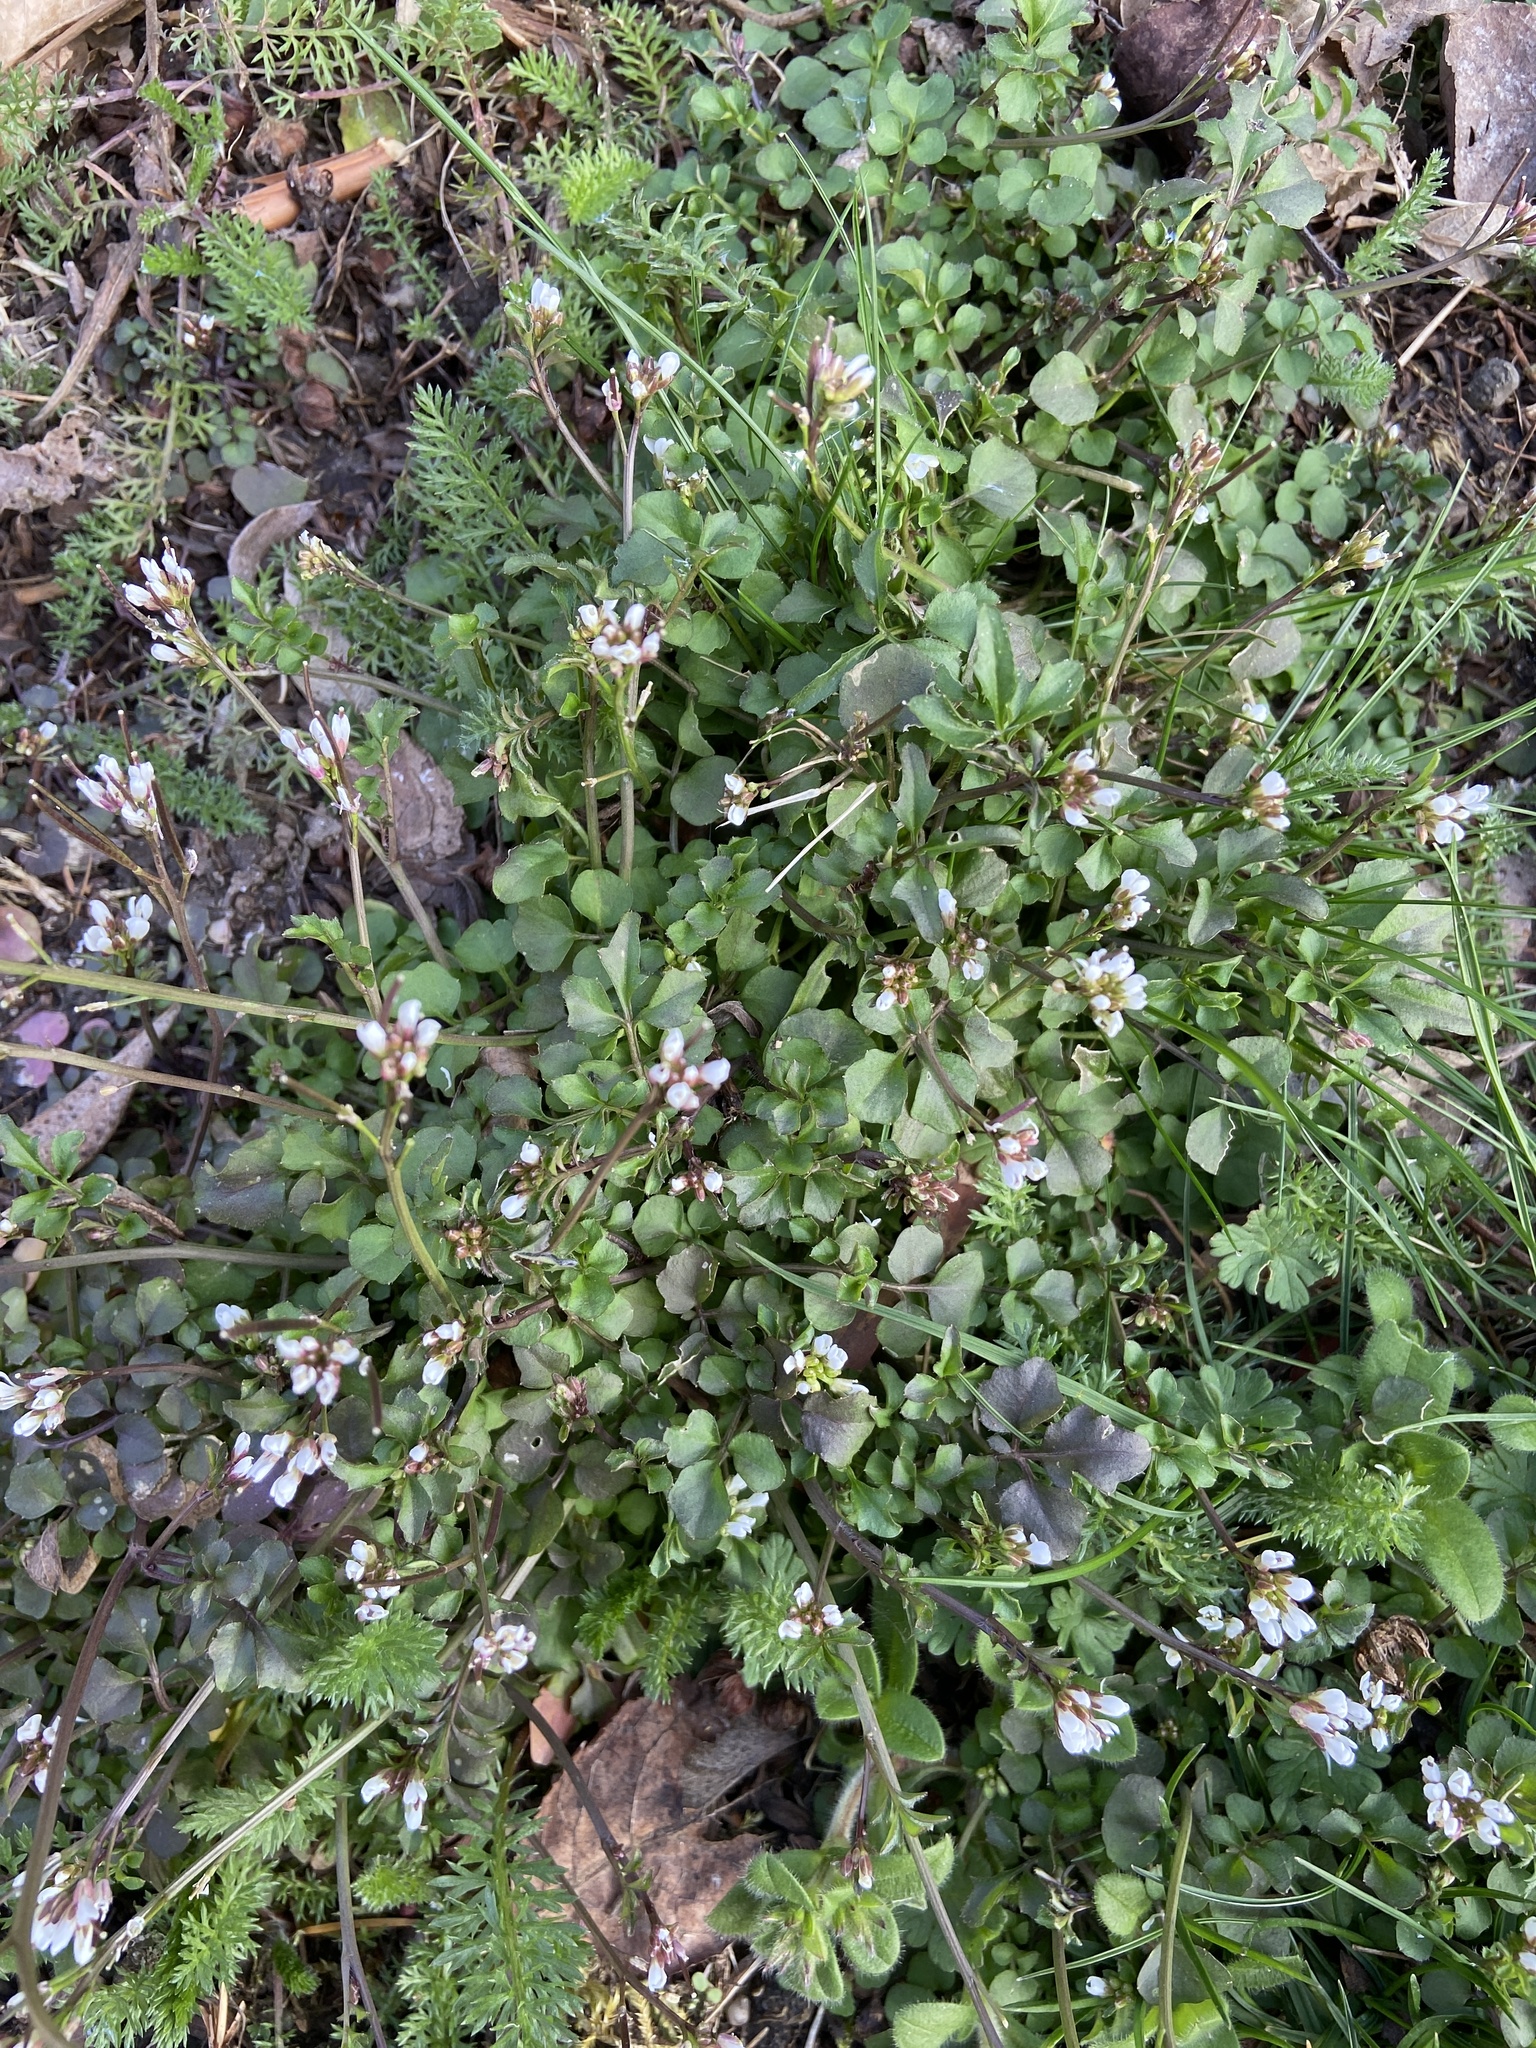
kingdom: Plantae
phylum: Tracheophyta
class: Magnoliopsida
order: Brassicales
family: Brassicaceae
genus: Cardamine
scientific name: Cardamine hirsuta
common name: Hairy bittercress
